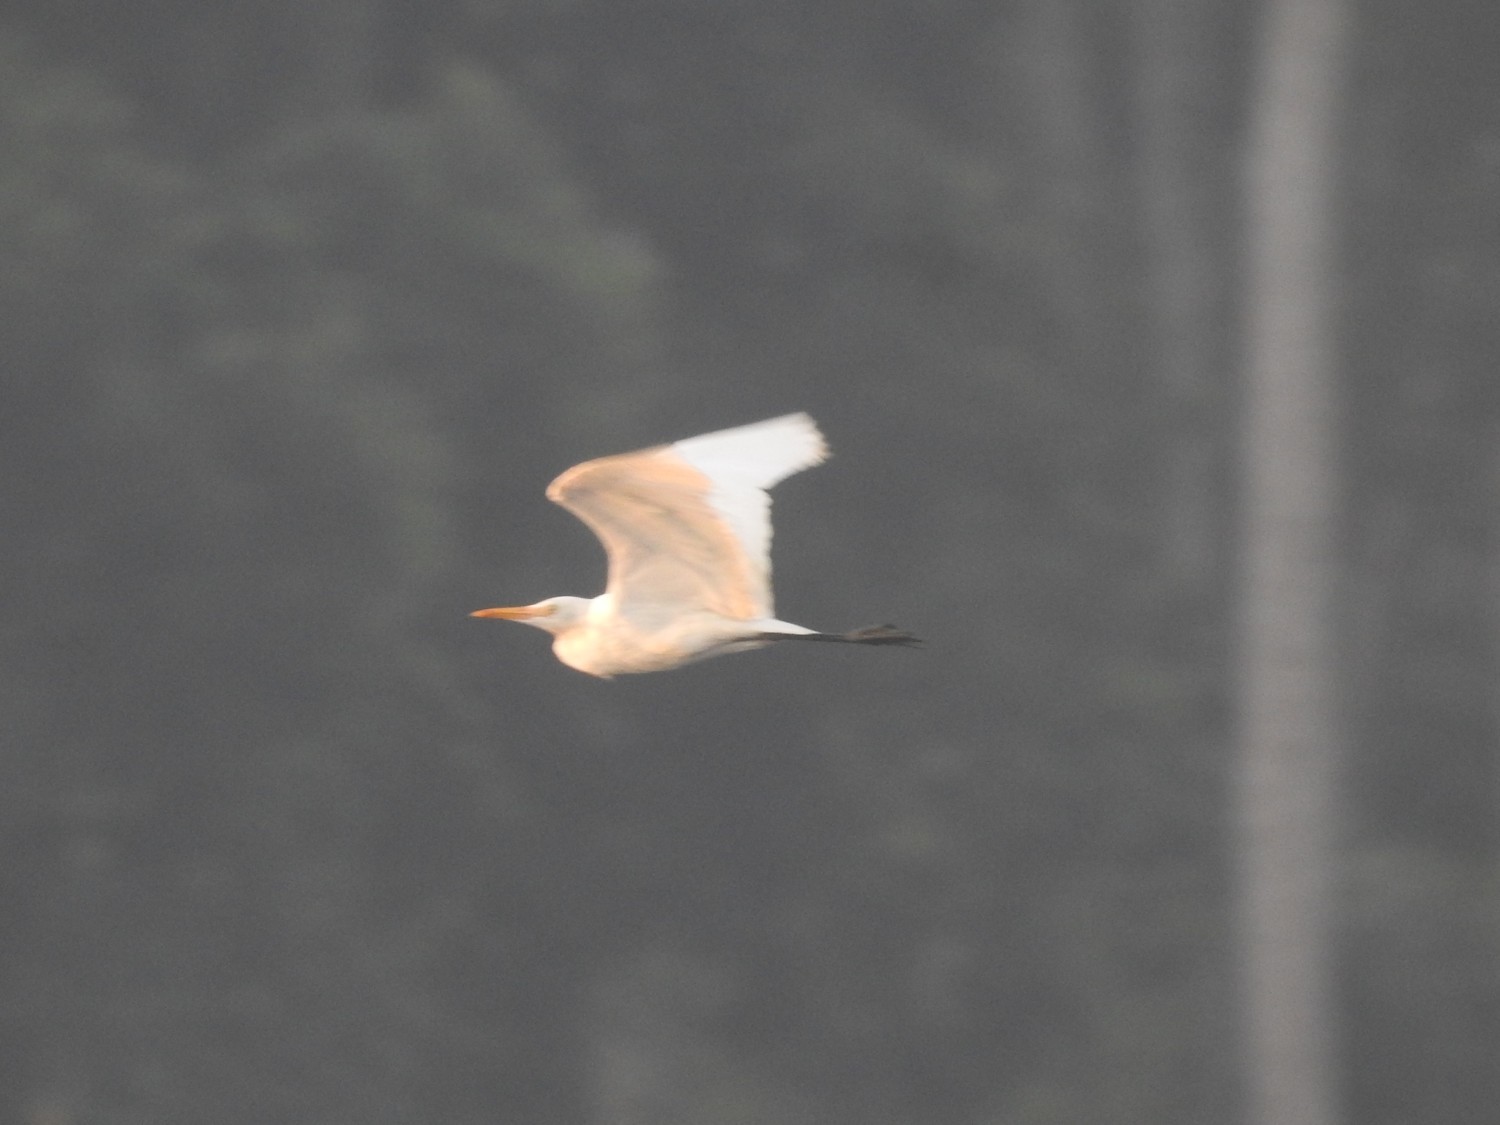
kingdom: Animalia
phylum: Chordata
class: Aves
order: Pelecaniformes
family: Ardeidae
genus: Egretta
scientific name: Egretta intermedia
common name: Intermediate egret
